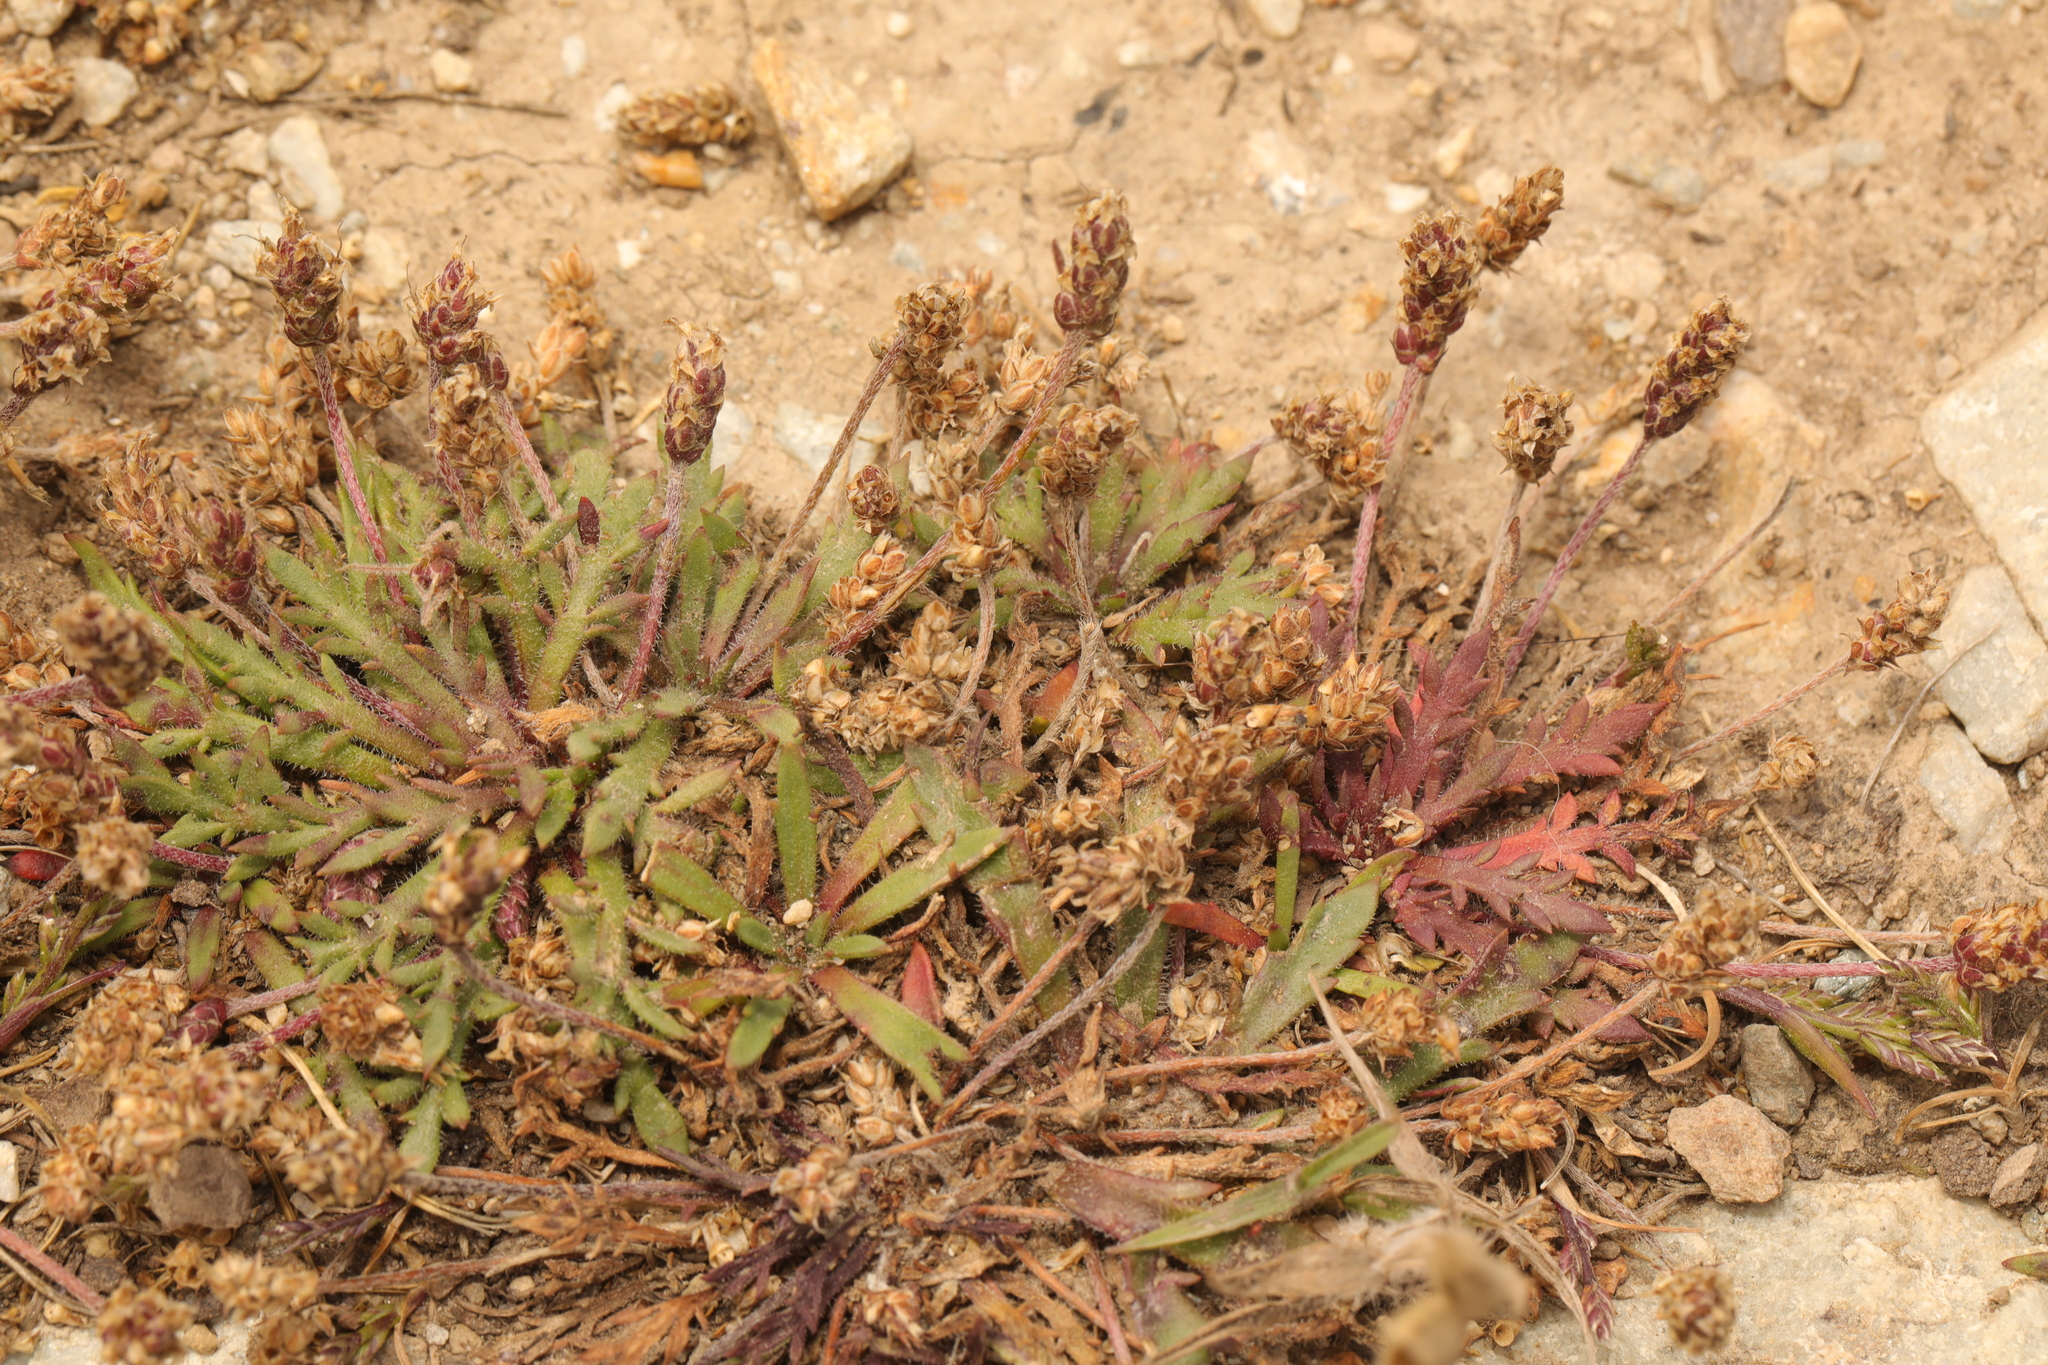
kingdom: Plantae
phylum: Tracheophyta
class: Magnoliopsida
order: Lamiales
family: Plantaginaceae
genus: Plantago
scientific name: Plantago coronopus
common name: Buck's-horn plantain
